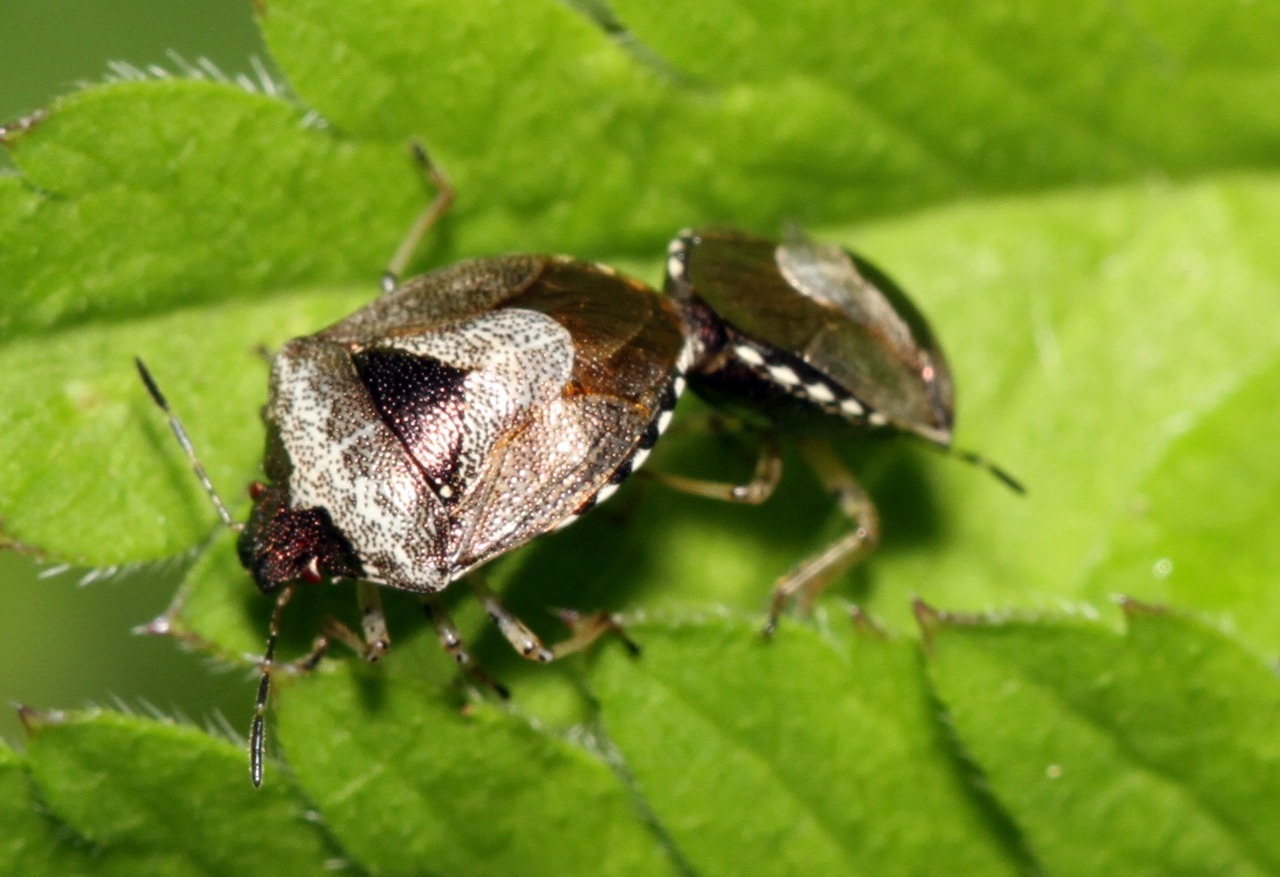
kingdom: Animalia
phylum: Arthropoda
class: Insecta
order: Hemiptera
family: Pentatomidae
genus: Eysarcoris
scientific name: Eysarcoris venustissimus
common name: Woundwort shieldbug
